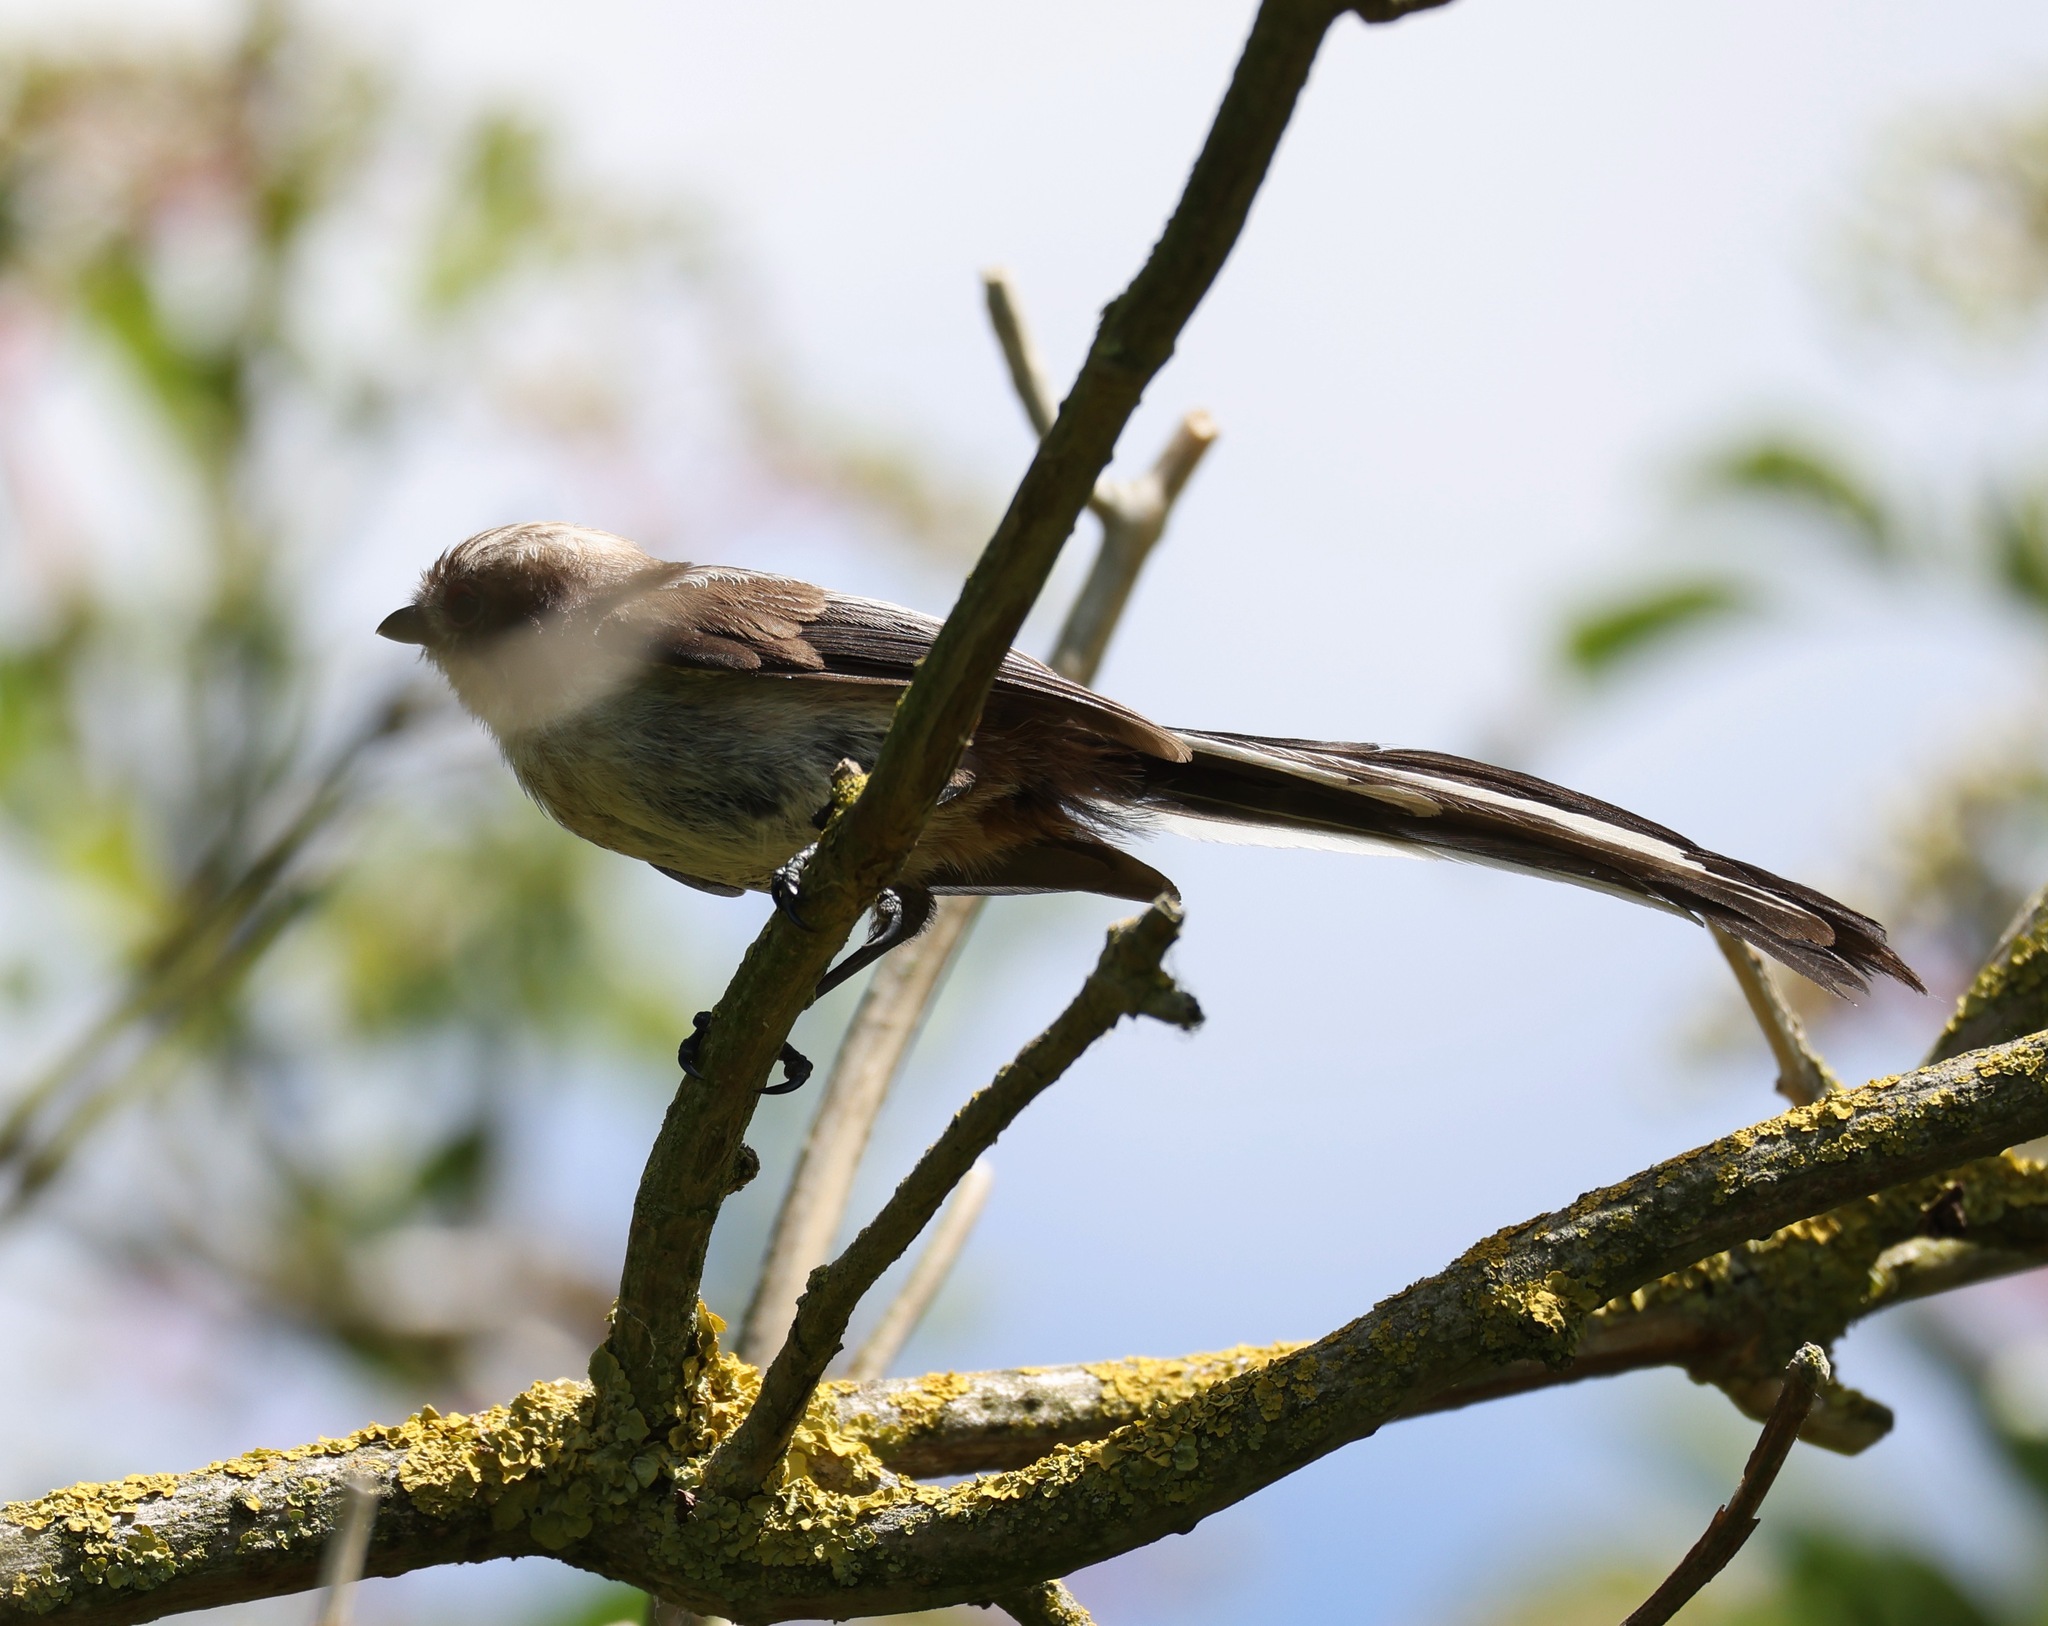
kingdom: Animalia
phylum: Chordata
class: Aves
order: Passeriformes
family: Aegithalidae
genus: Aegithalos
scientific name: Aegithalos caudatus
